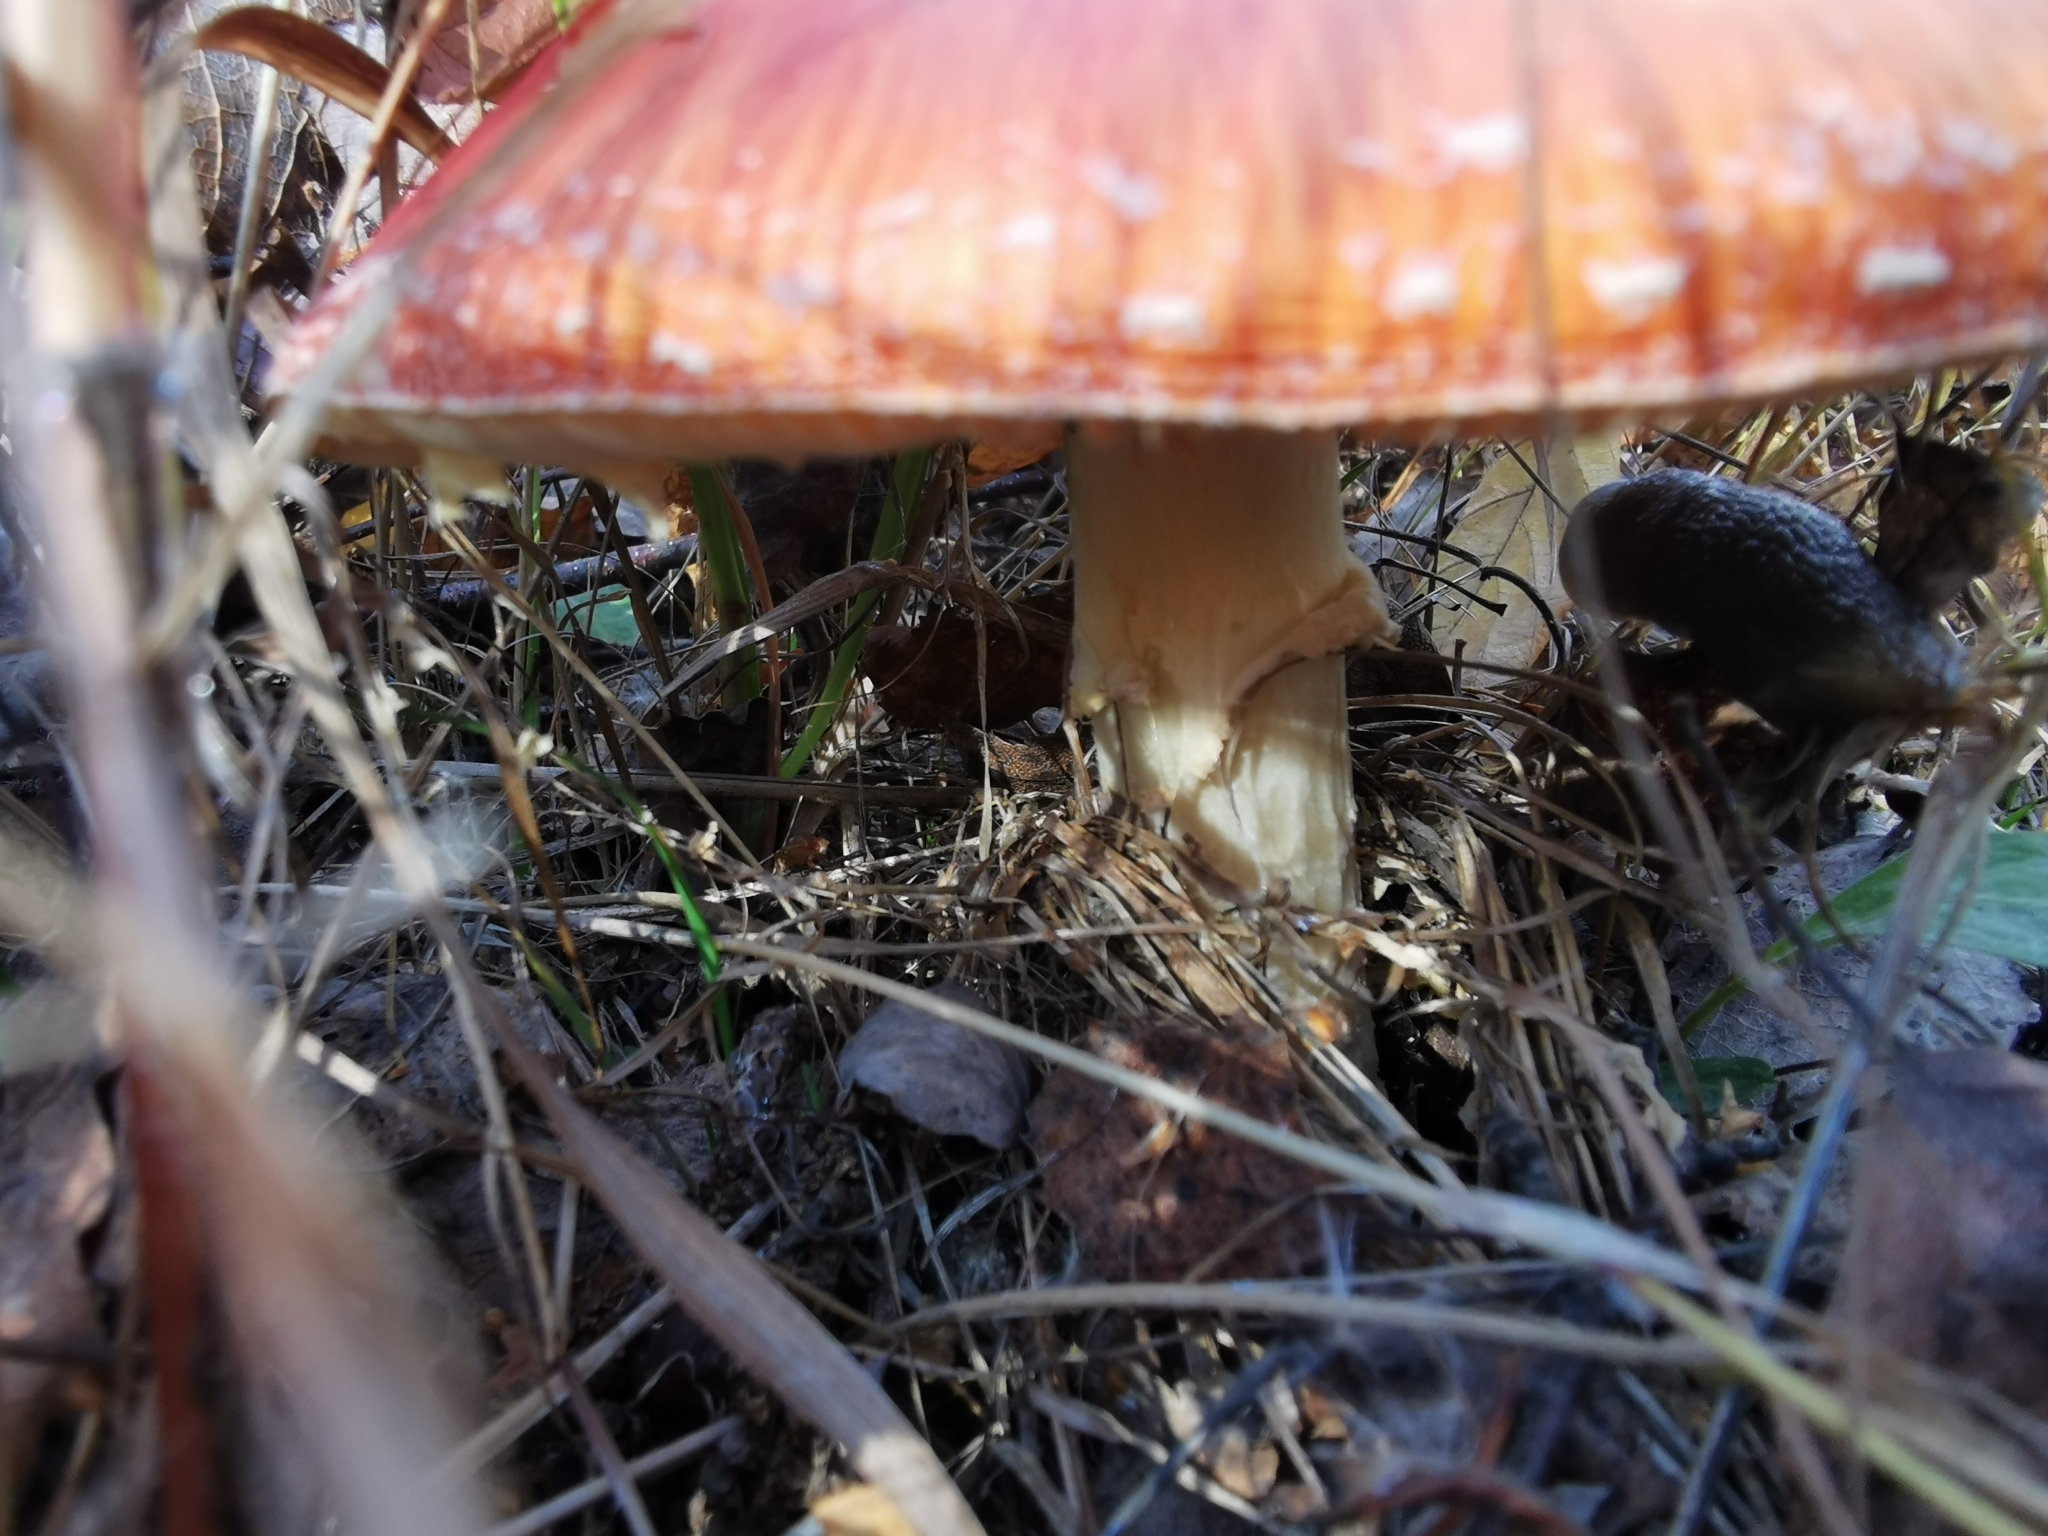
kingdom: Fungi
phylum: Basidiomycota
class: Agaricomycetes
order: Agaricales
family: Amanitaceae
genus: Amanita
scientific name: Amanita muscaria
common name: Fly agaric
